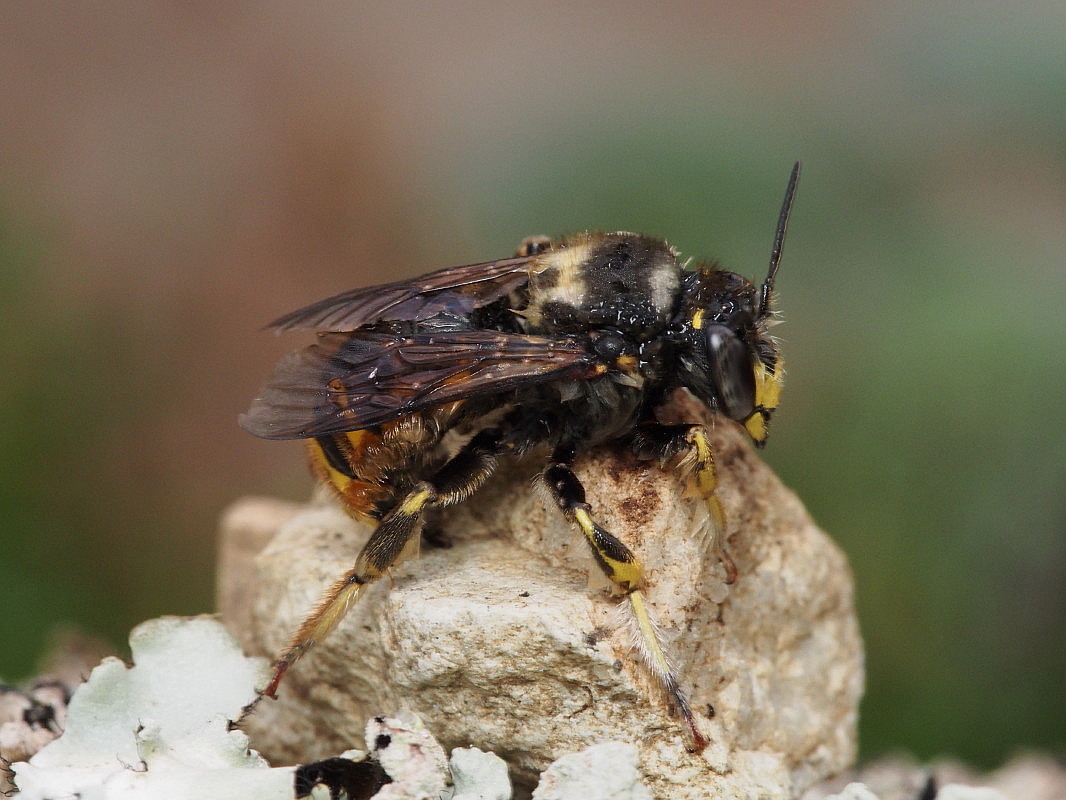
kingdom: Animalia
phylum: Arthropoda
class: Insecta
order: Hymenoptera
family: Megachilidae
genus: Anthidium
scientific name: Anthidium manicatum
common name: Wool carder bee
